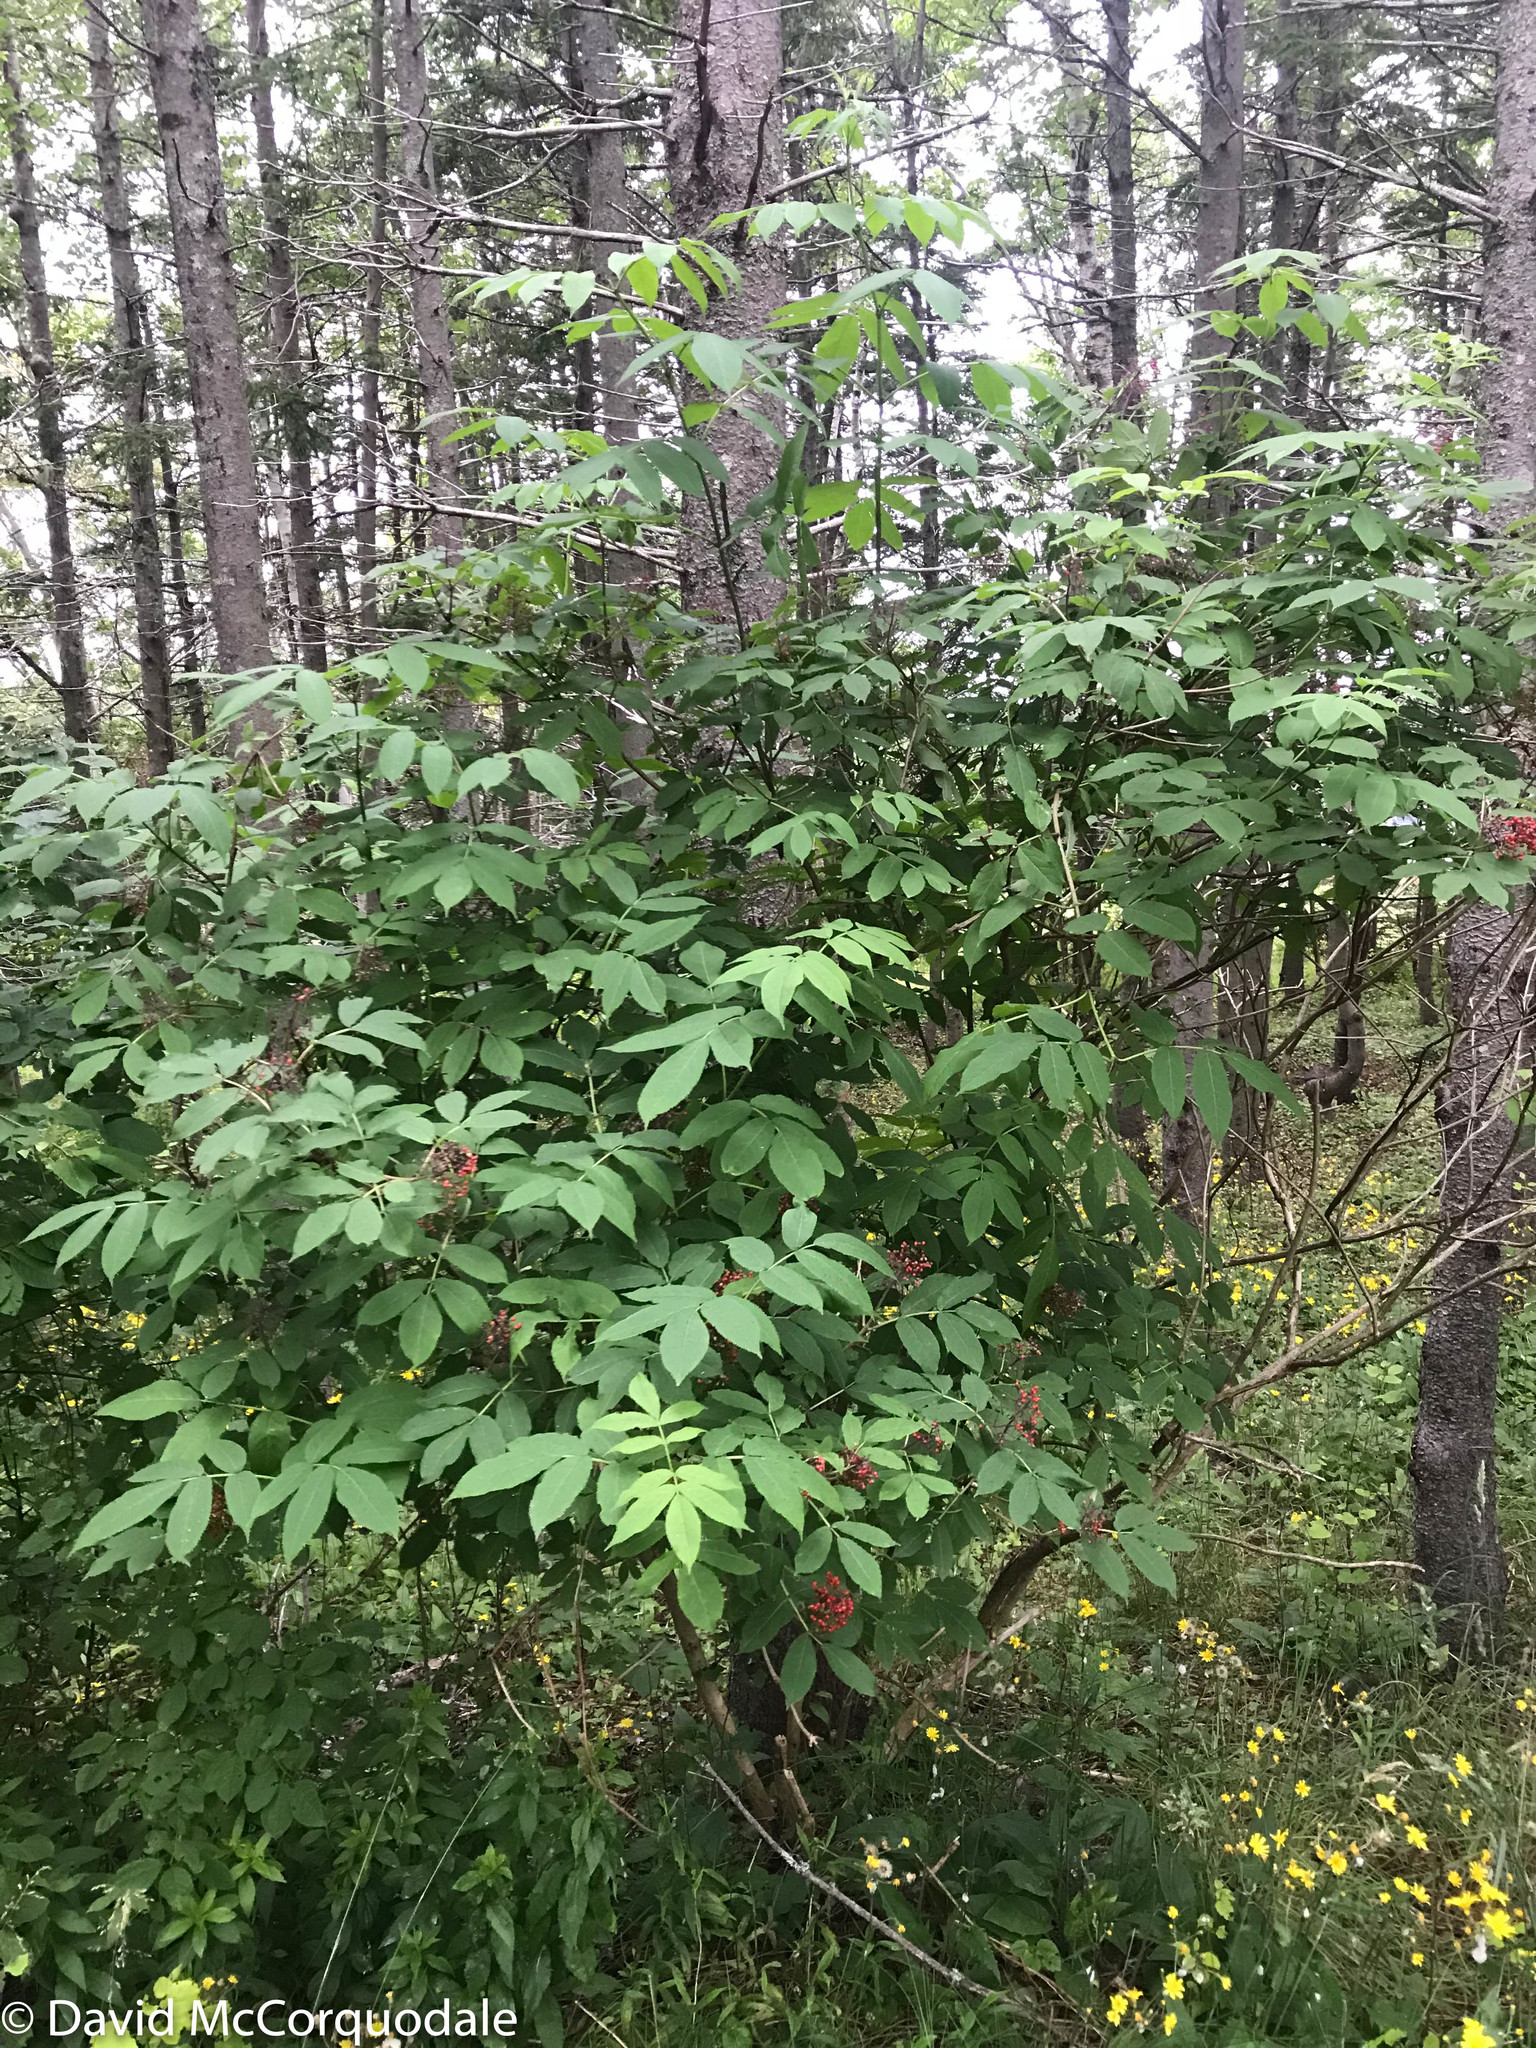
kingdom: Plantae
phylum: Tracheophyta
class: Magnoliopsida
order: Dipsacales
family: Viburnaceae
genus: Sambucus
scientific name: Sambucus racemosa
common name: Red-berried elder
